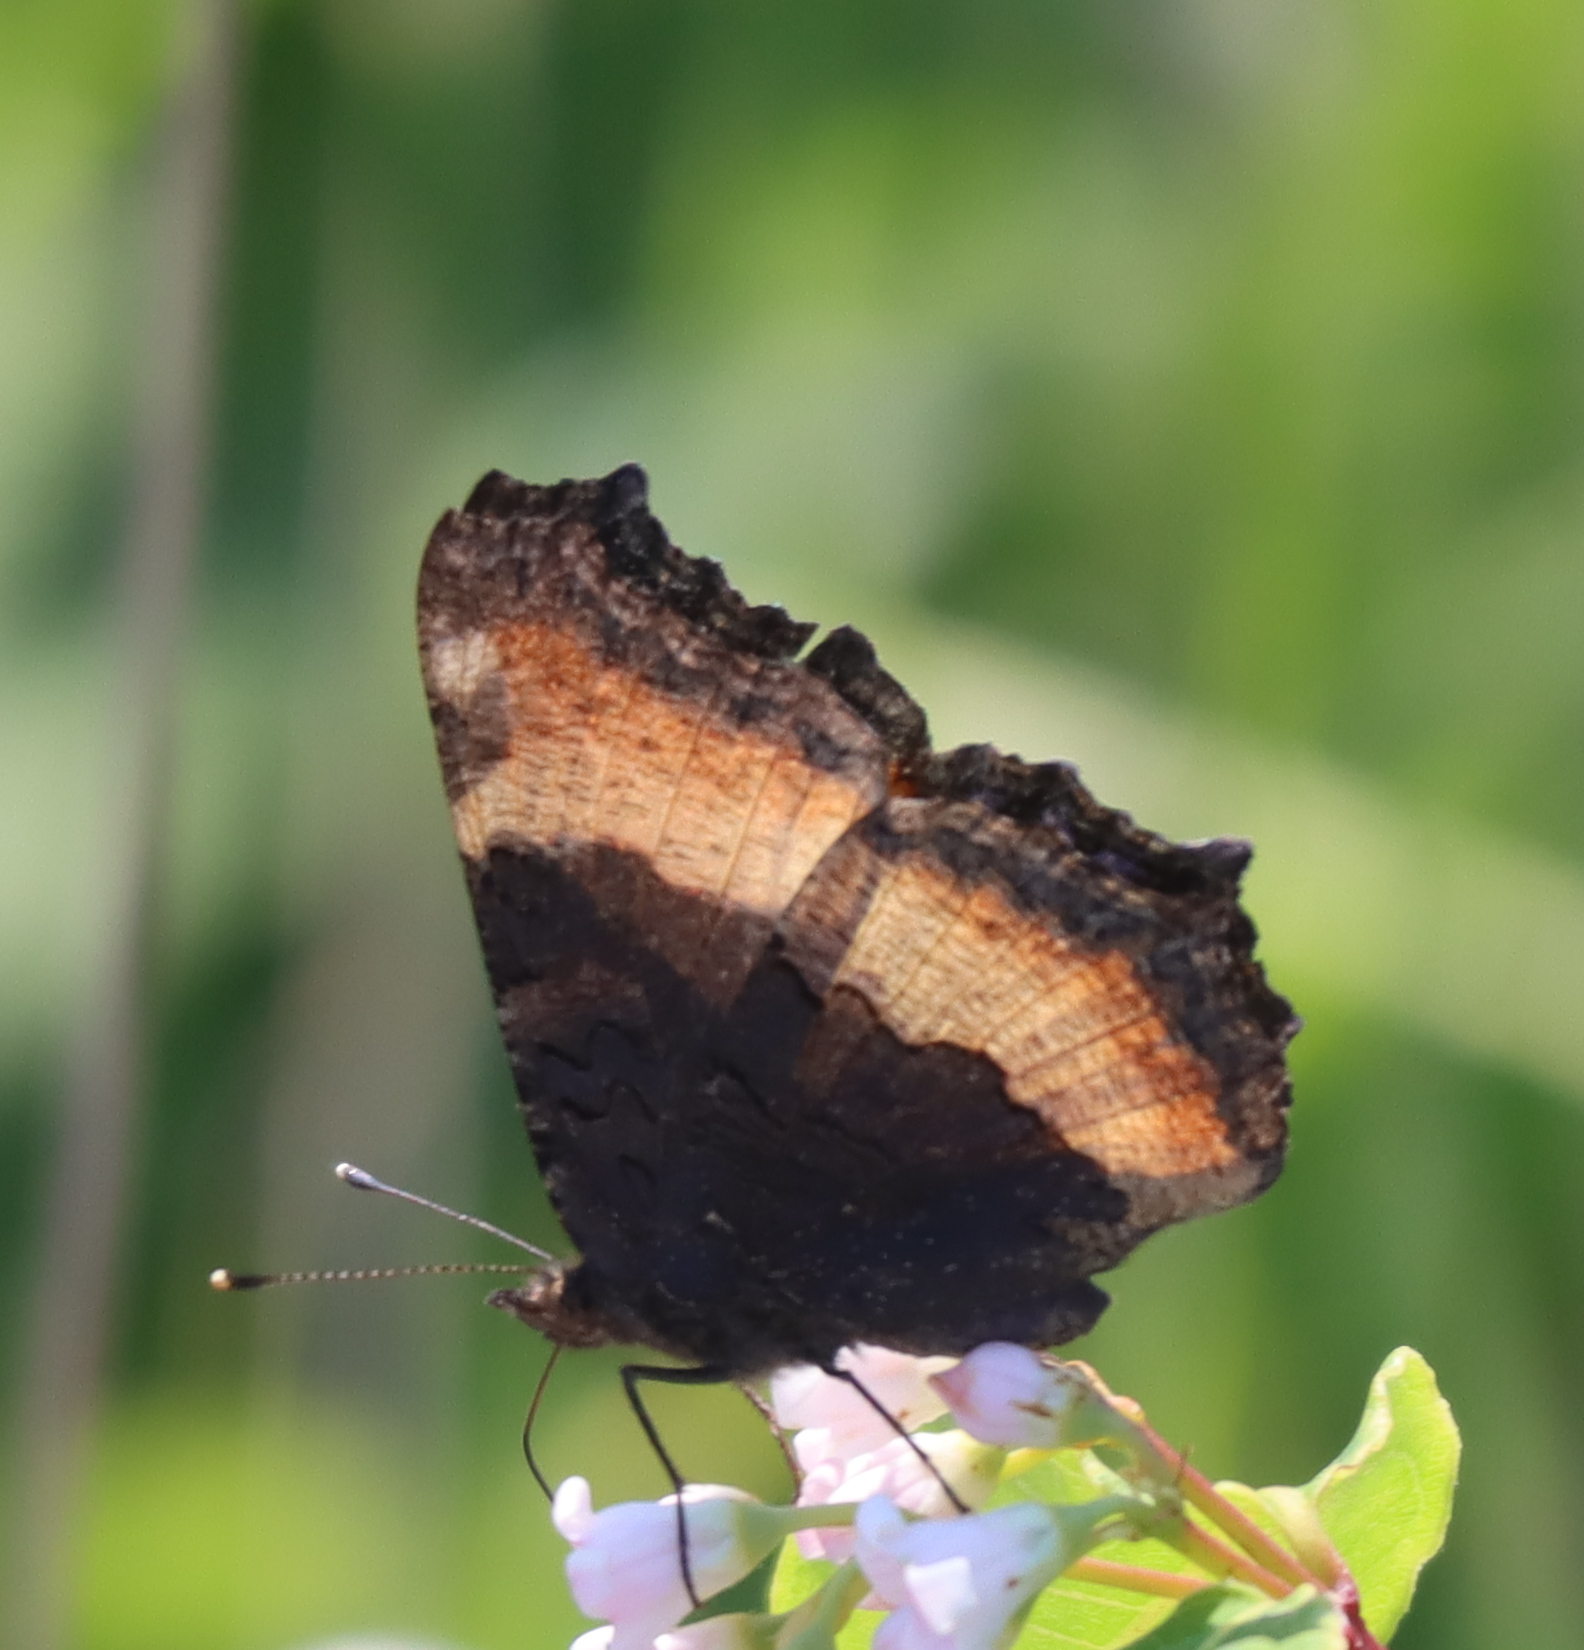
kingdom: Animalia
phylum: Arthropoda
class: Insecta
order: Lepidoptera
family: Nymphalidae
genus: Aglais
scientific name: Aglais milberti
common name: Milbert's tortoiseshell
